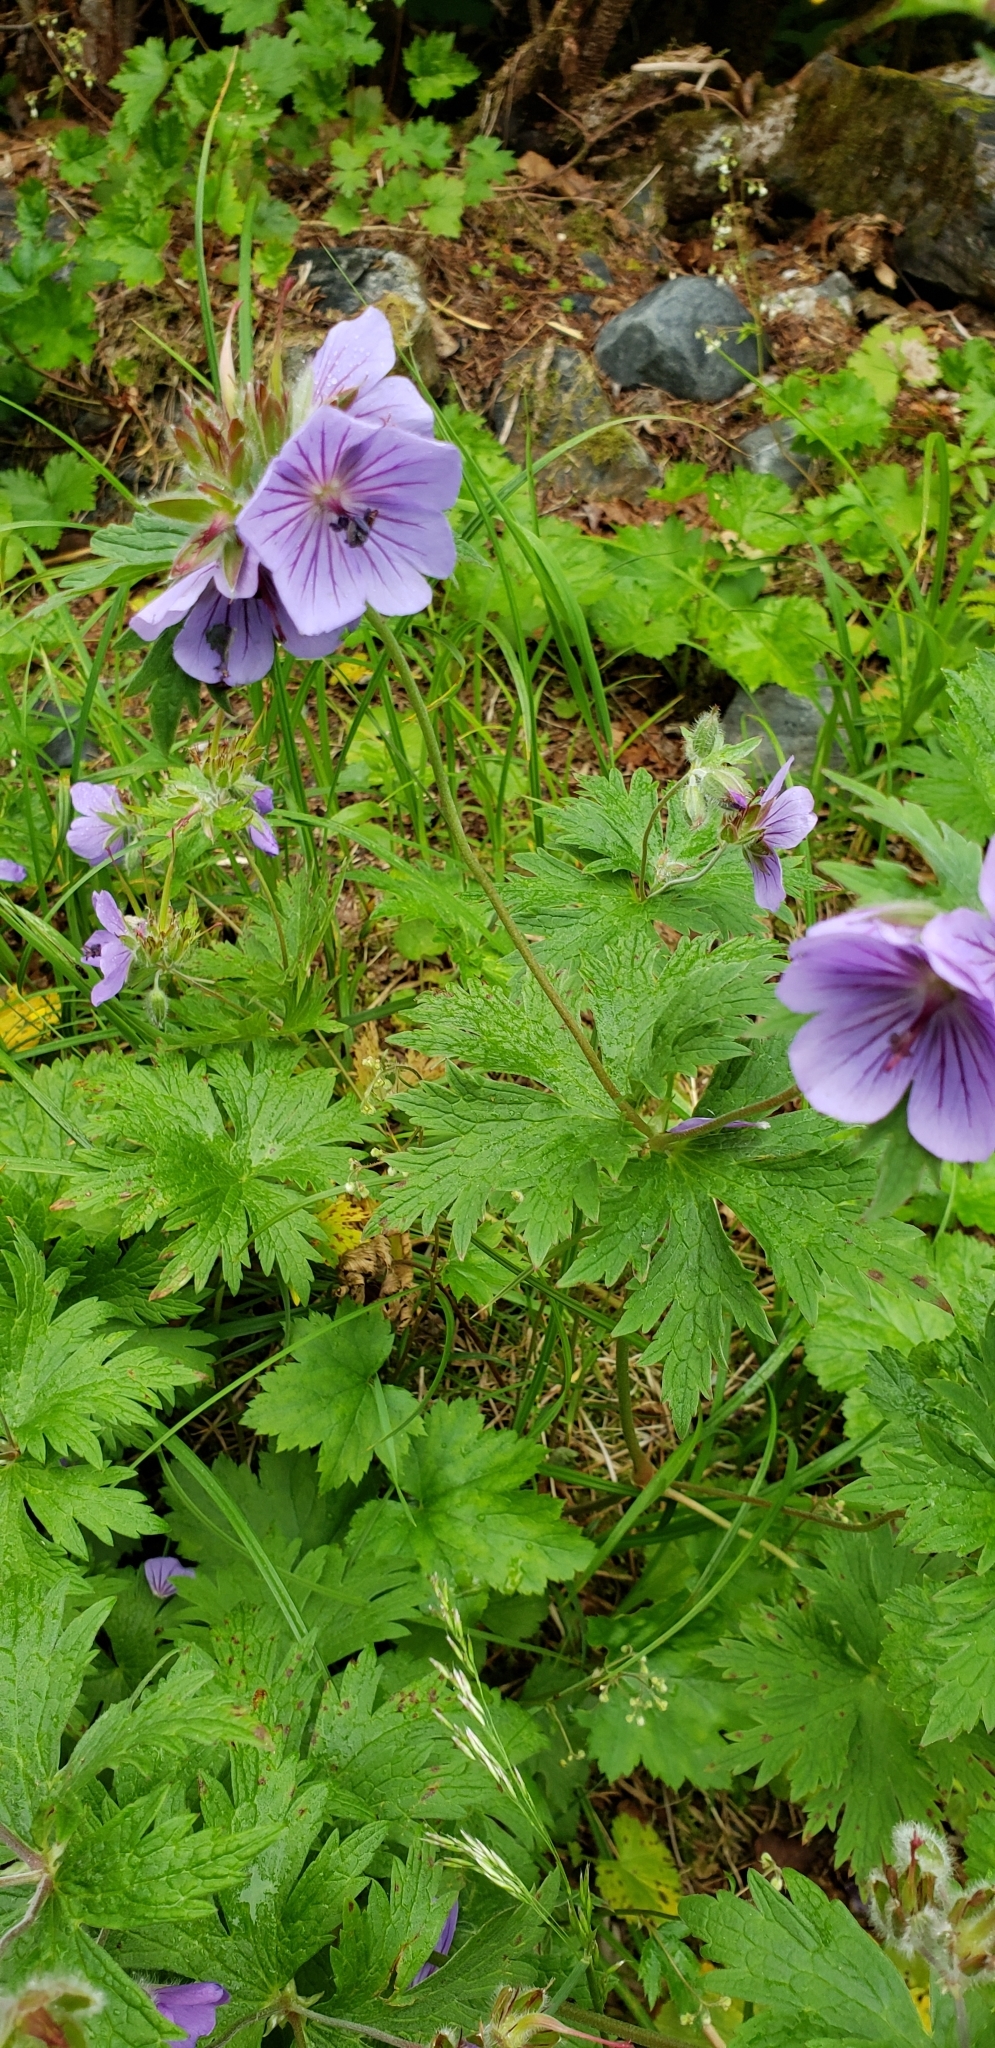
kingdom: Plantae
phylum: Tracheophyta
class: Magnoliopsida
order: Geraniales
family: Geraniaceae
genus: Geranium
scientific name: Geranium erianthum
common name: Northern crane's-bill
